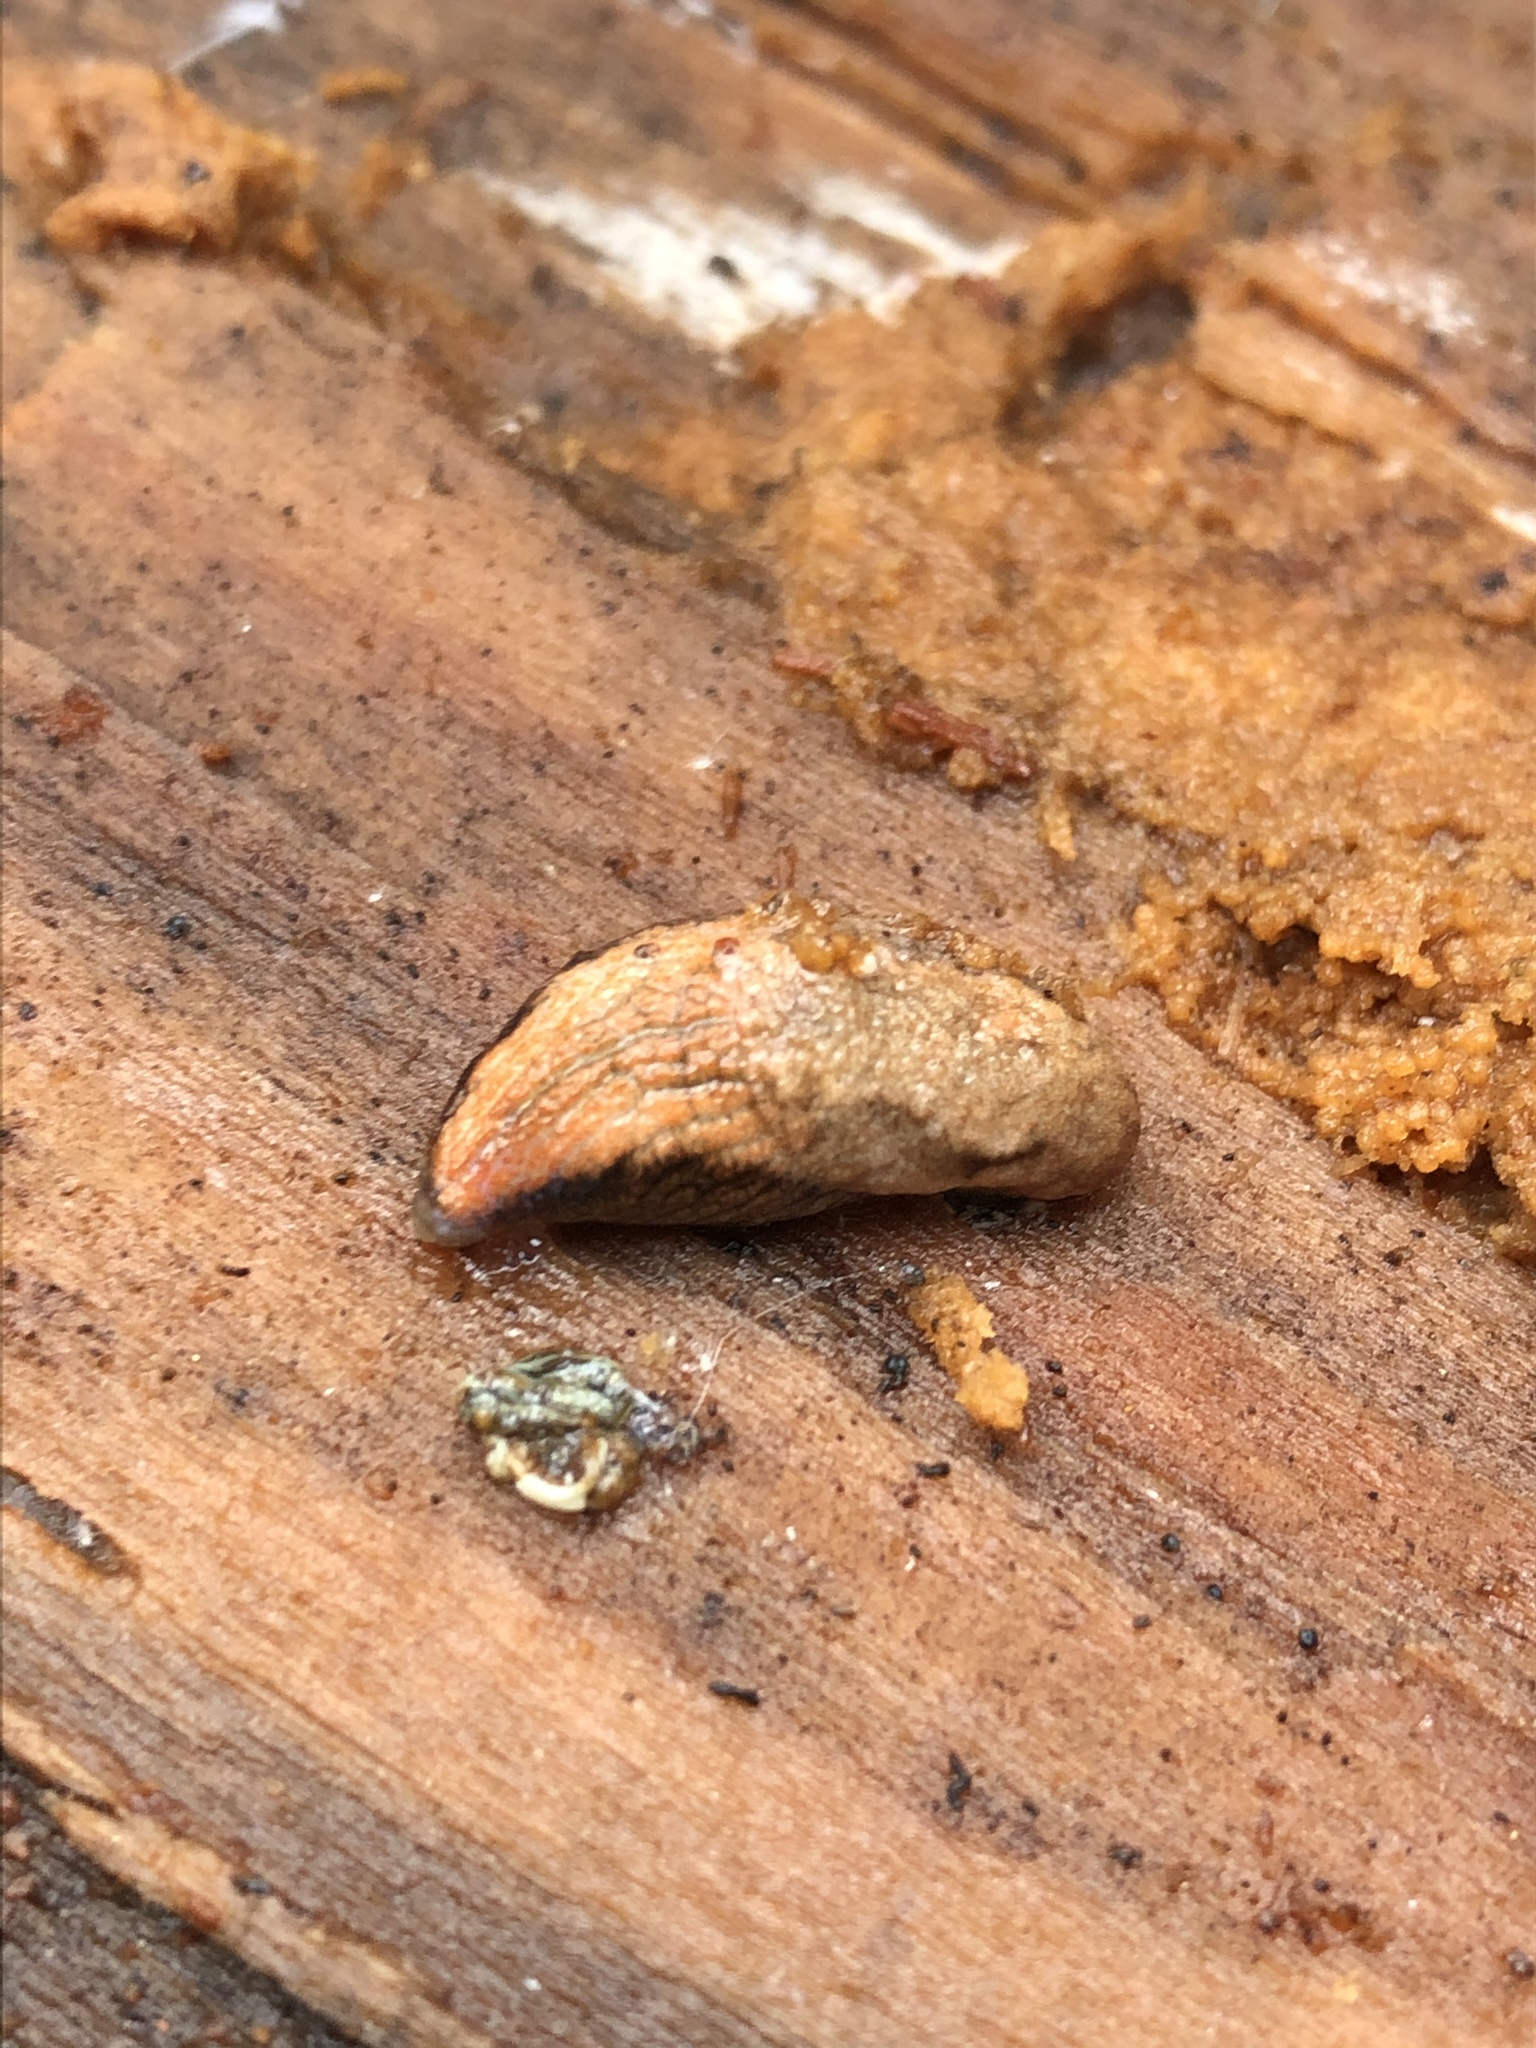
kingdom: Animalia
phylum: Mollusca
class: Gastropoda
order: Stylommatophora
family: Ariolimacidae
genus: Prophysaon
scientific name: Prophysaon vanattae
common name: Scarletback taildropper
